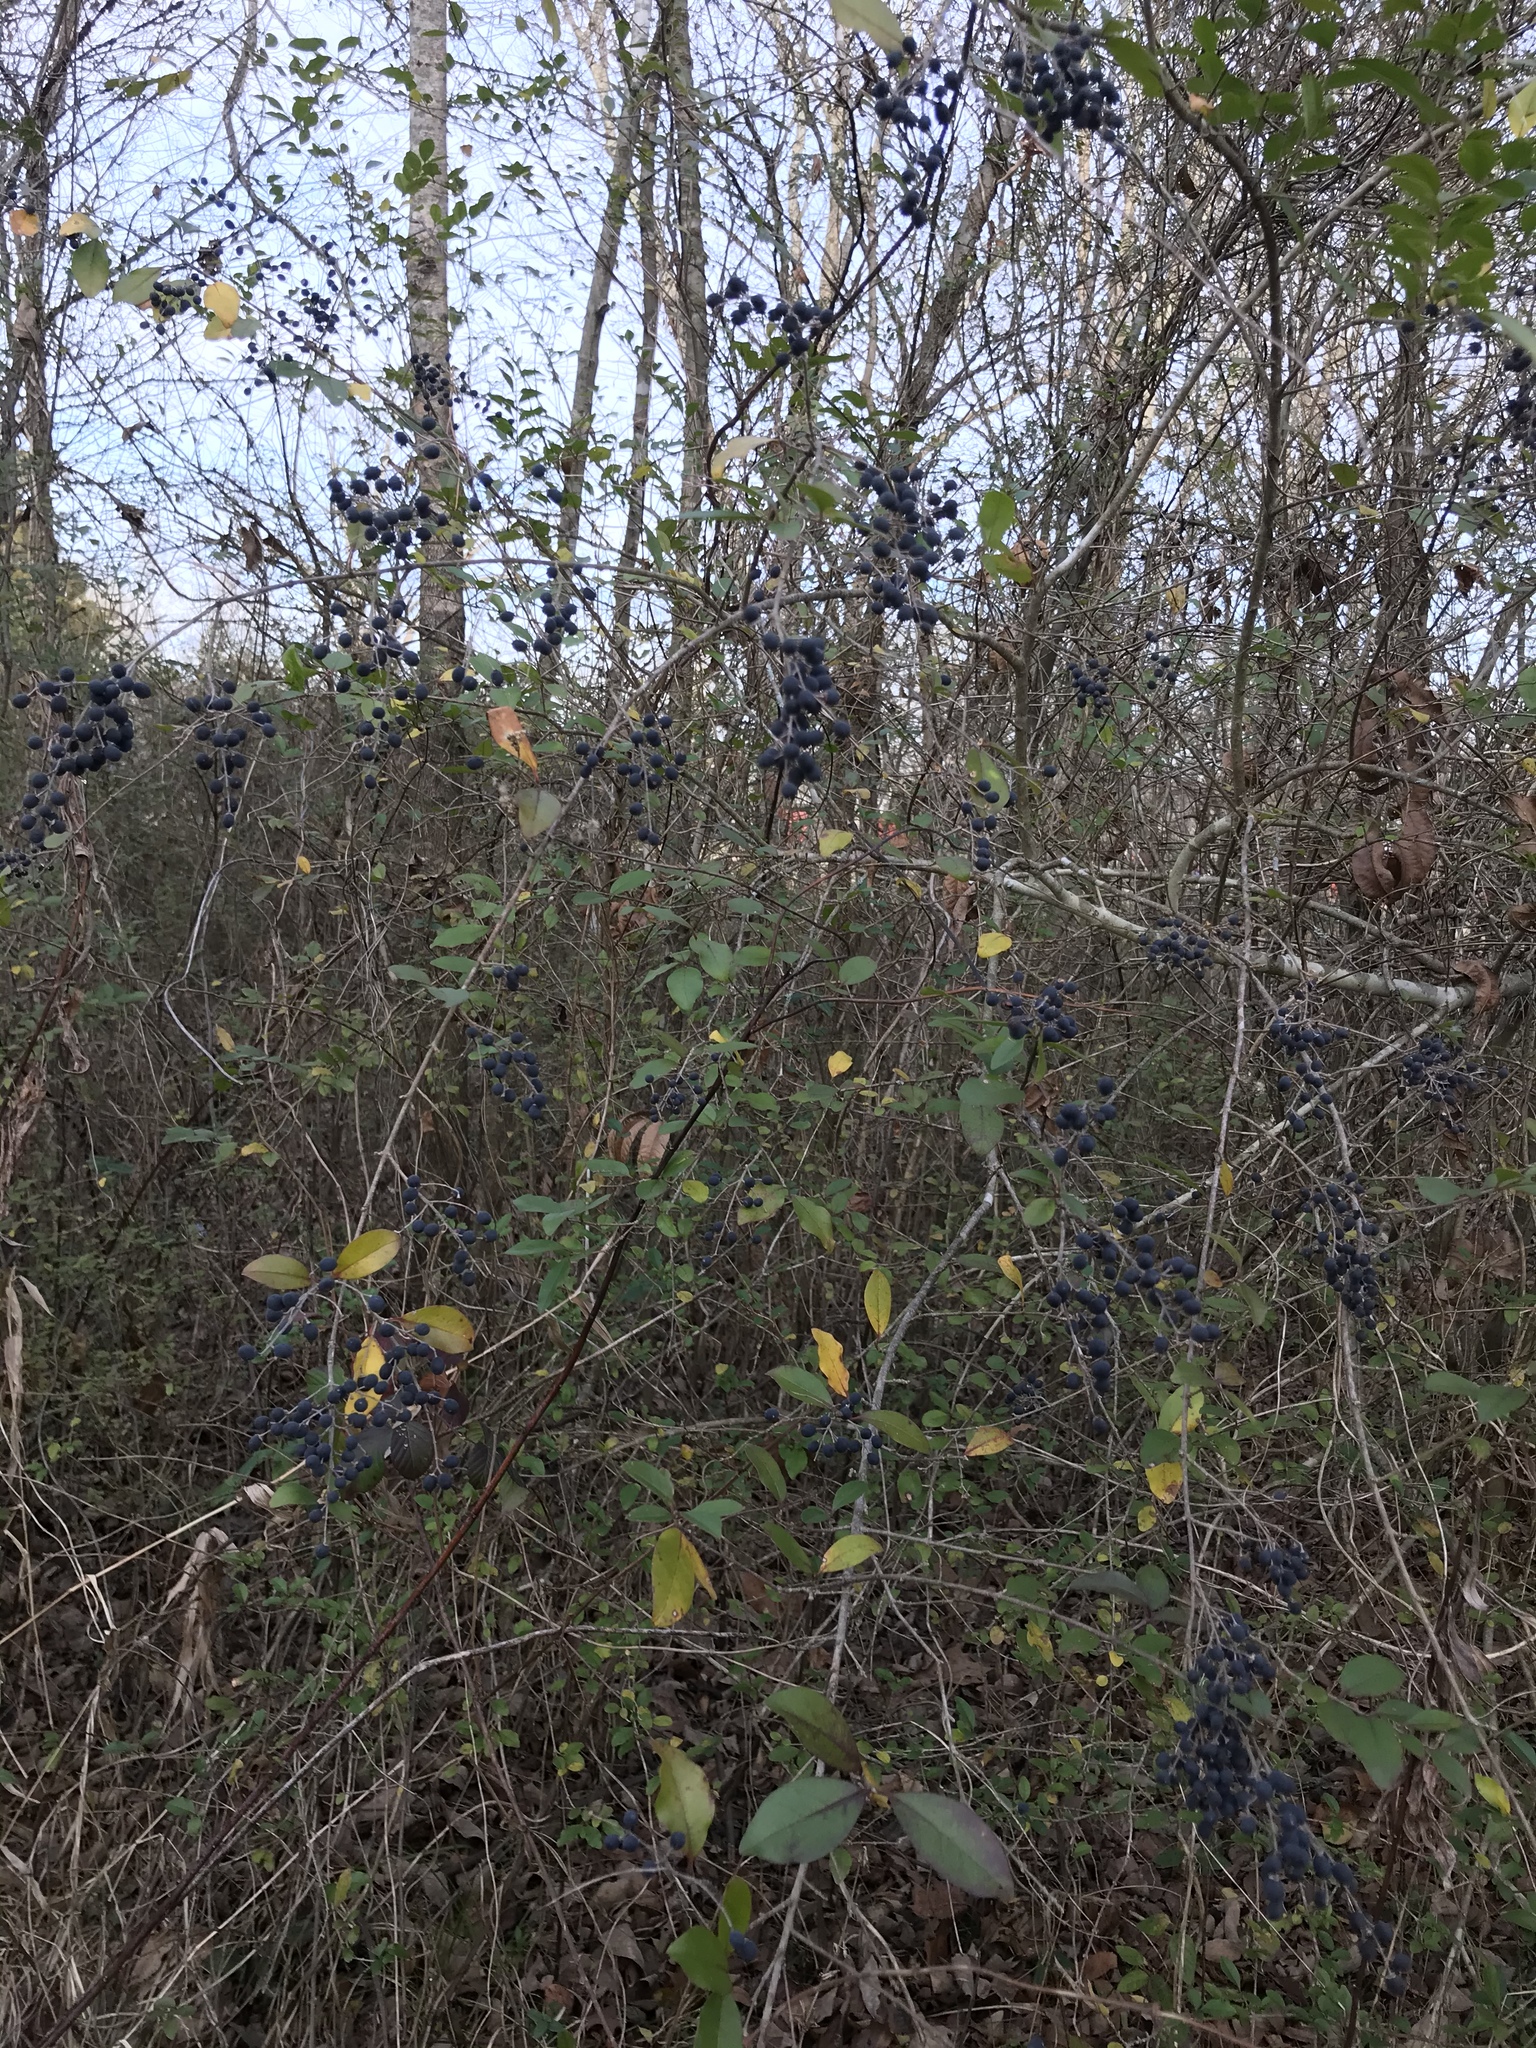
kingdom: Plantae
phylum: Tracheophyta
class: Magnoliopsida
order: Lamiales
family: Oleaceae
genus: Ligustrum
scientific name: Ligustrum sinense
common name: Chinese privet
